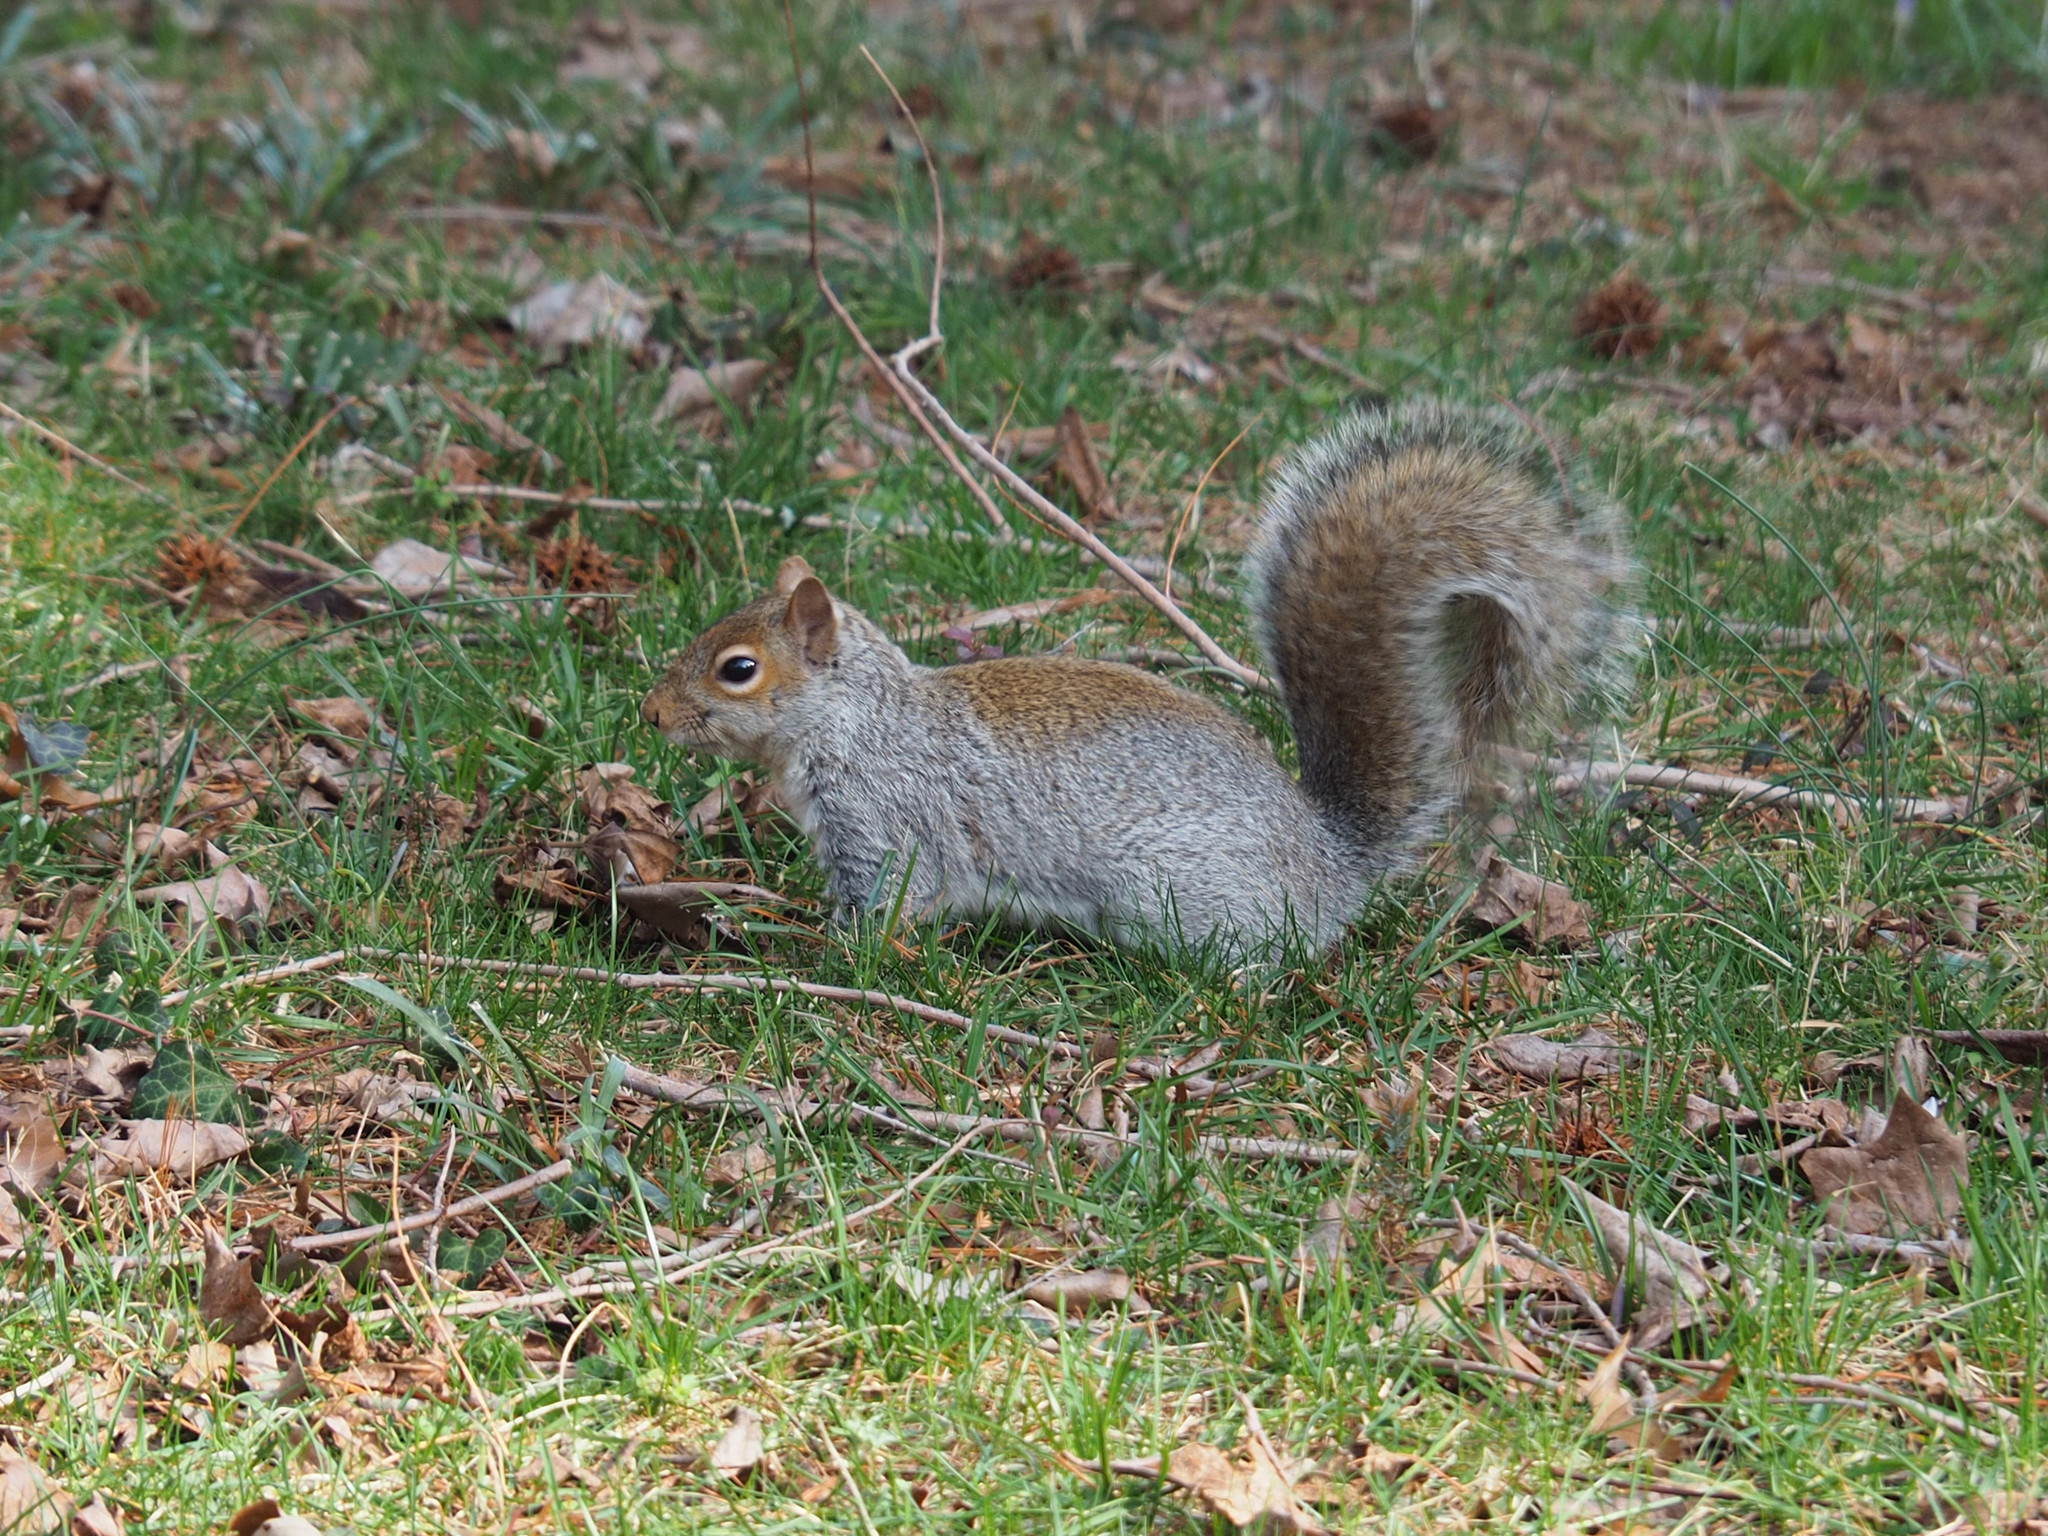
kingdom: Animalia
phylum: Chordata
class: Mammalia
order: Rodentia
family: Sciuridae
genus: Sciurus
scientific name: Sciurus carolinensis
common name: Eastern gray squirrel
